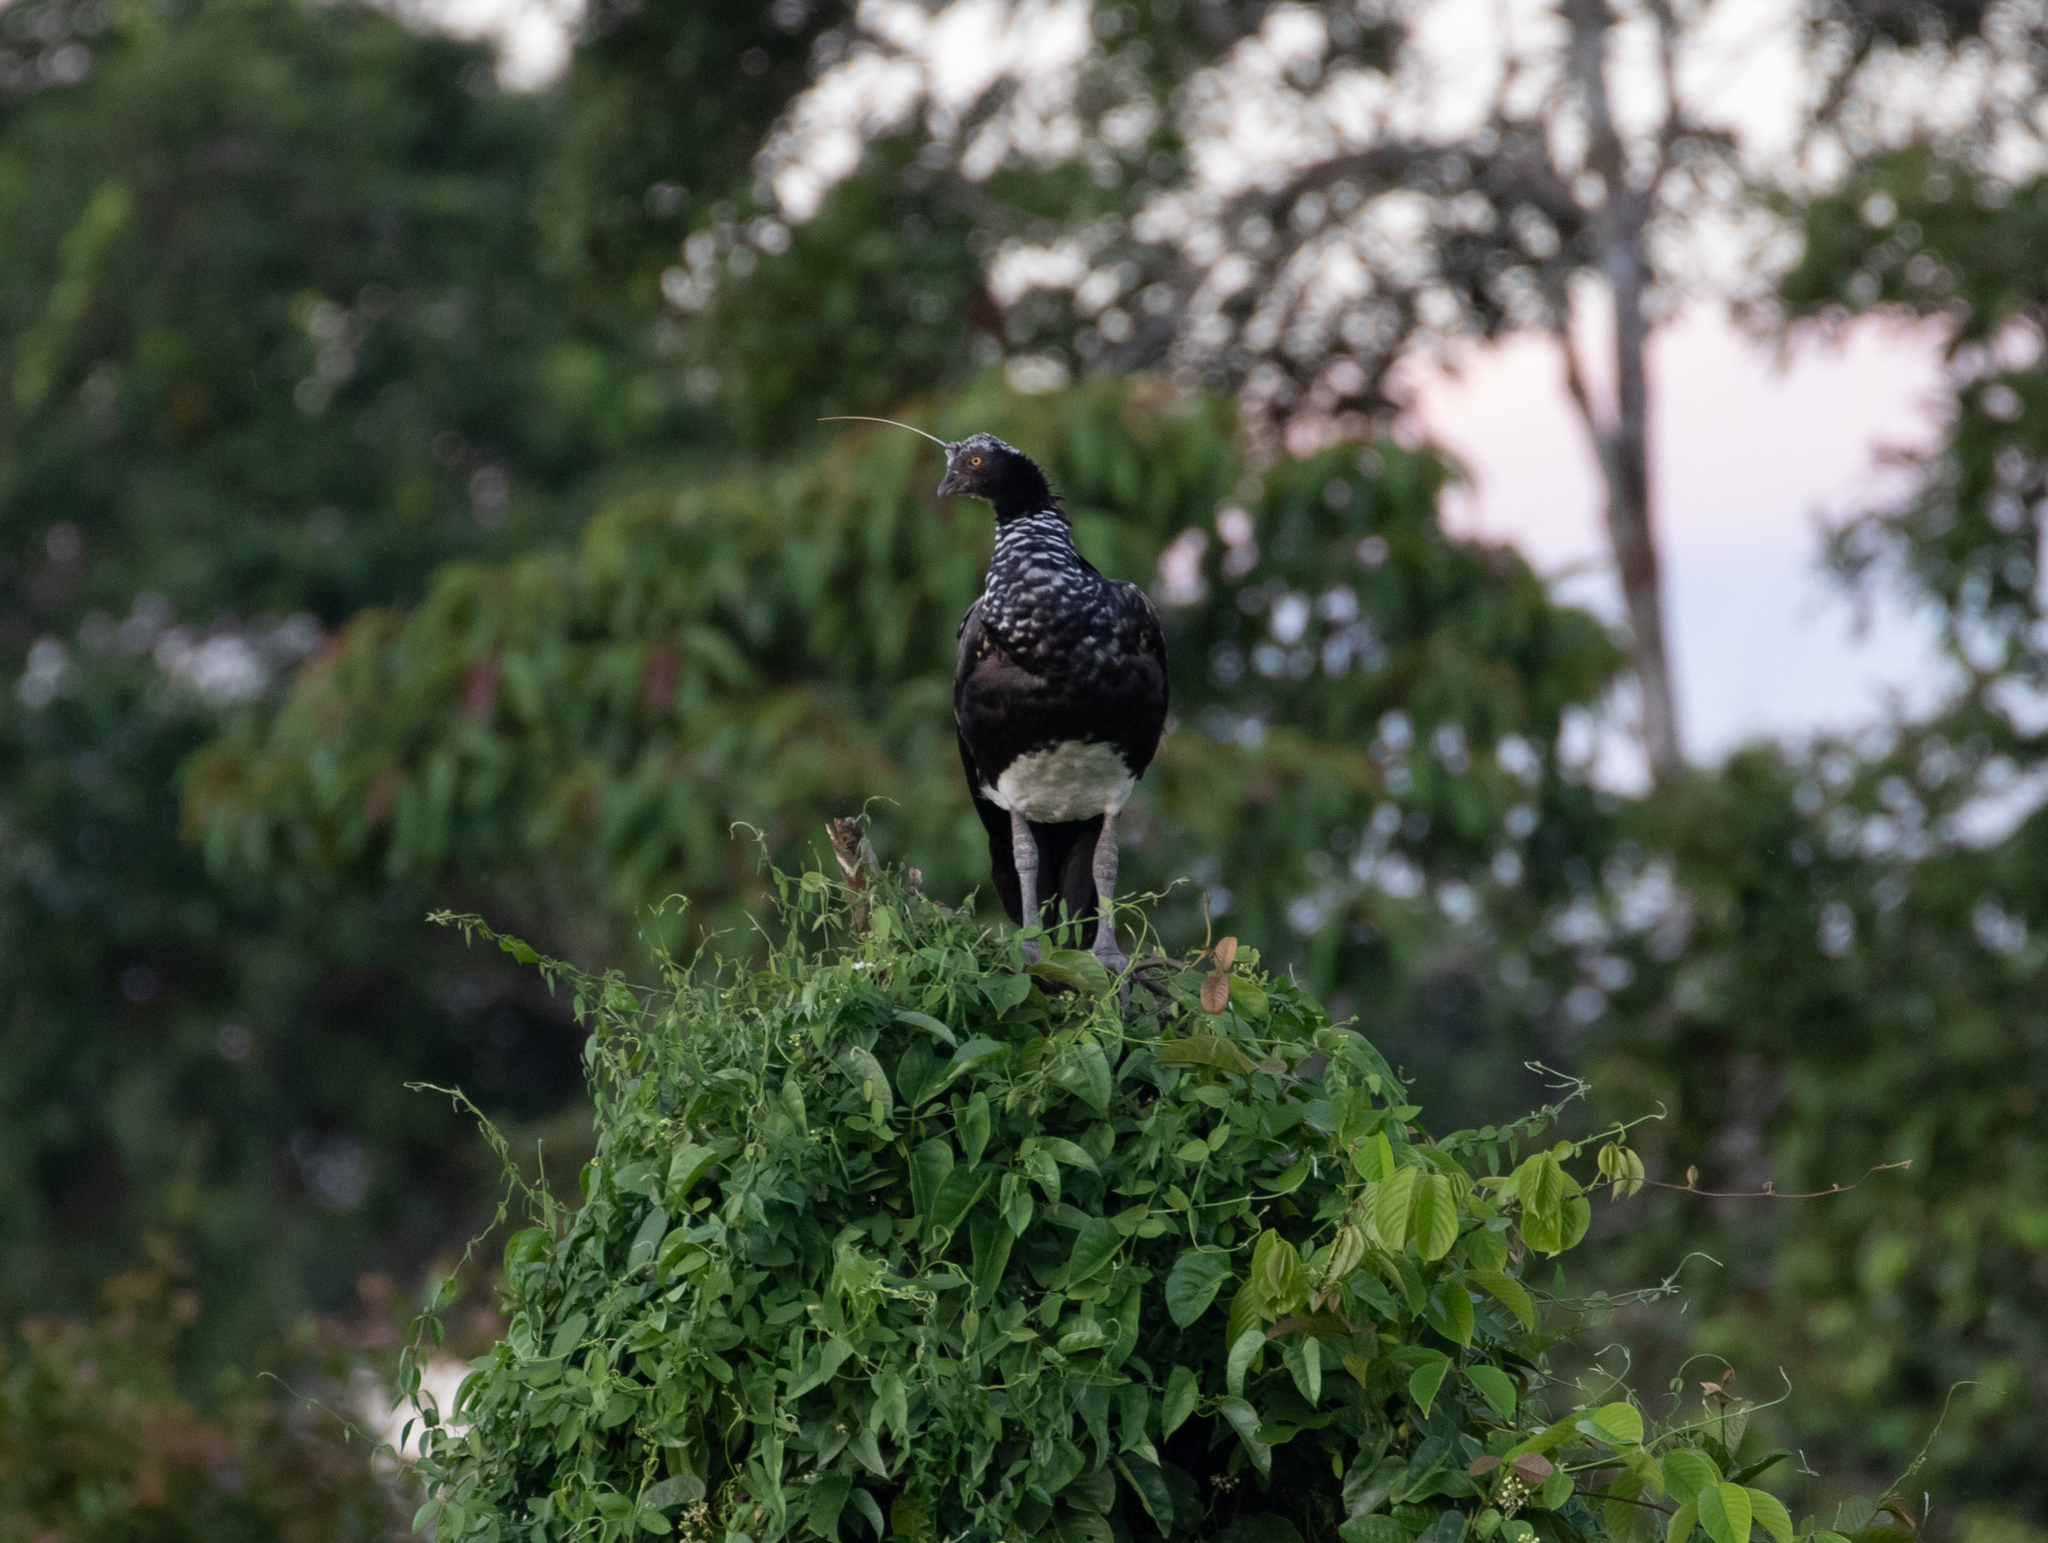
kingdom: Animalia
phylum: Chordata
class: Aves
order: Anseriformes
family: Anhimidae
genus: Anhima
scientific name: Anhima cornuta
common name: Horned screamer
